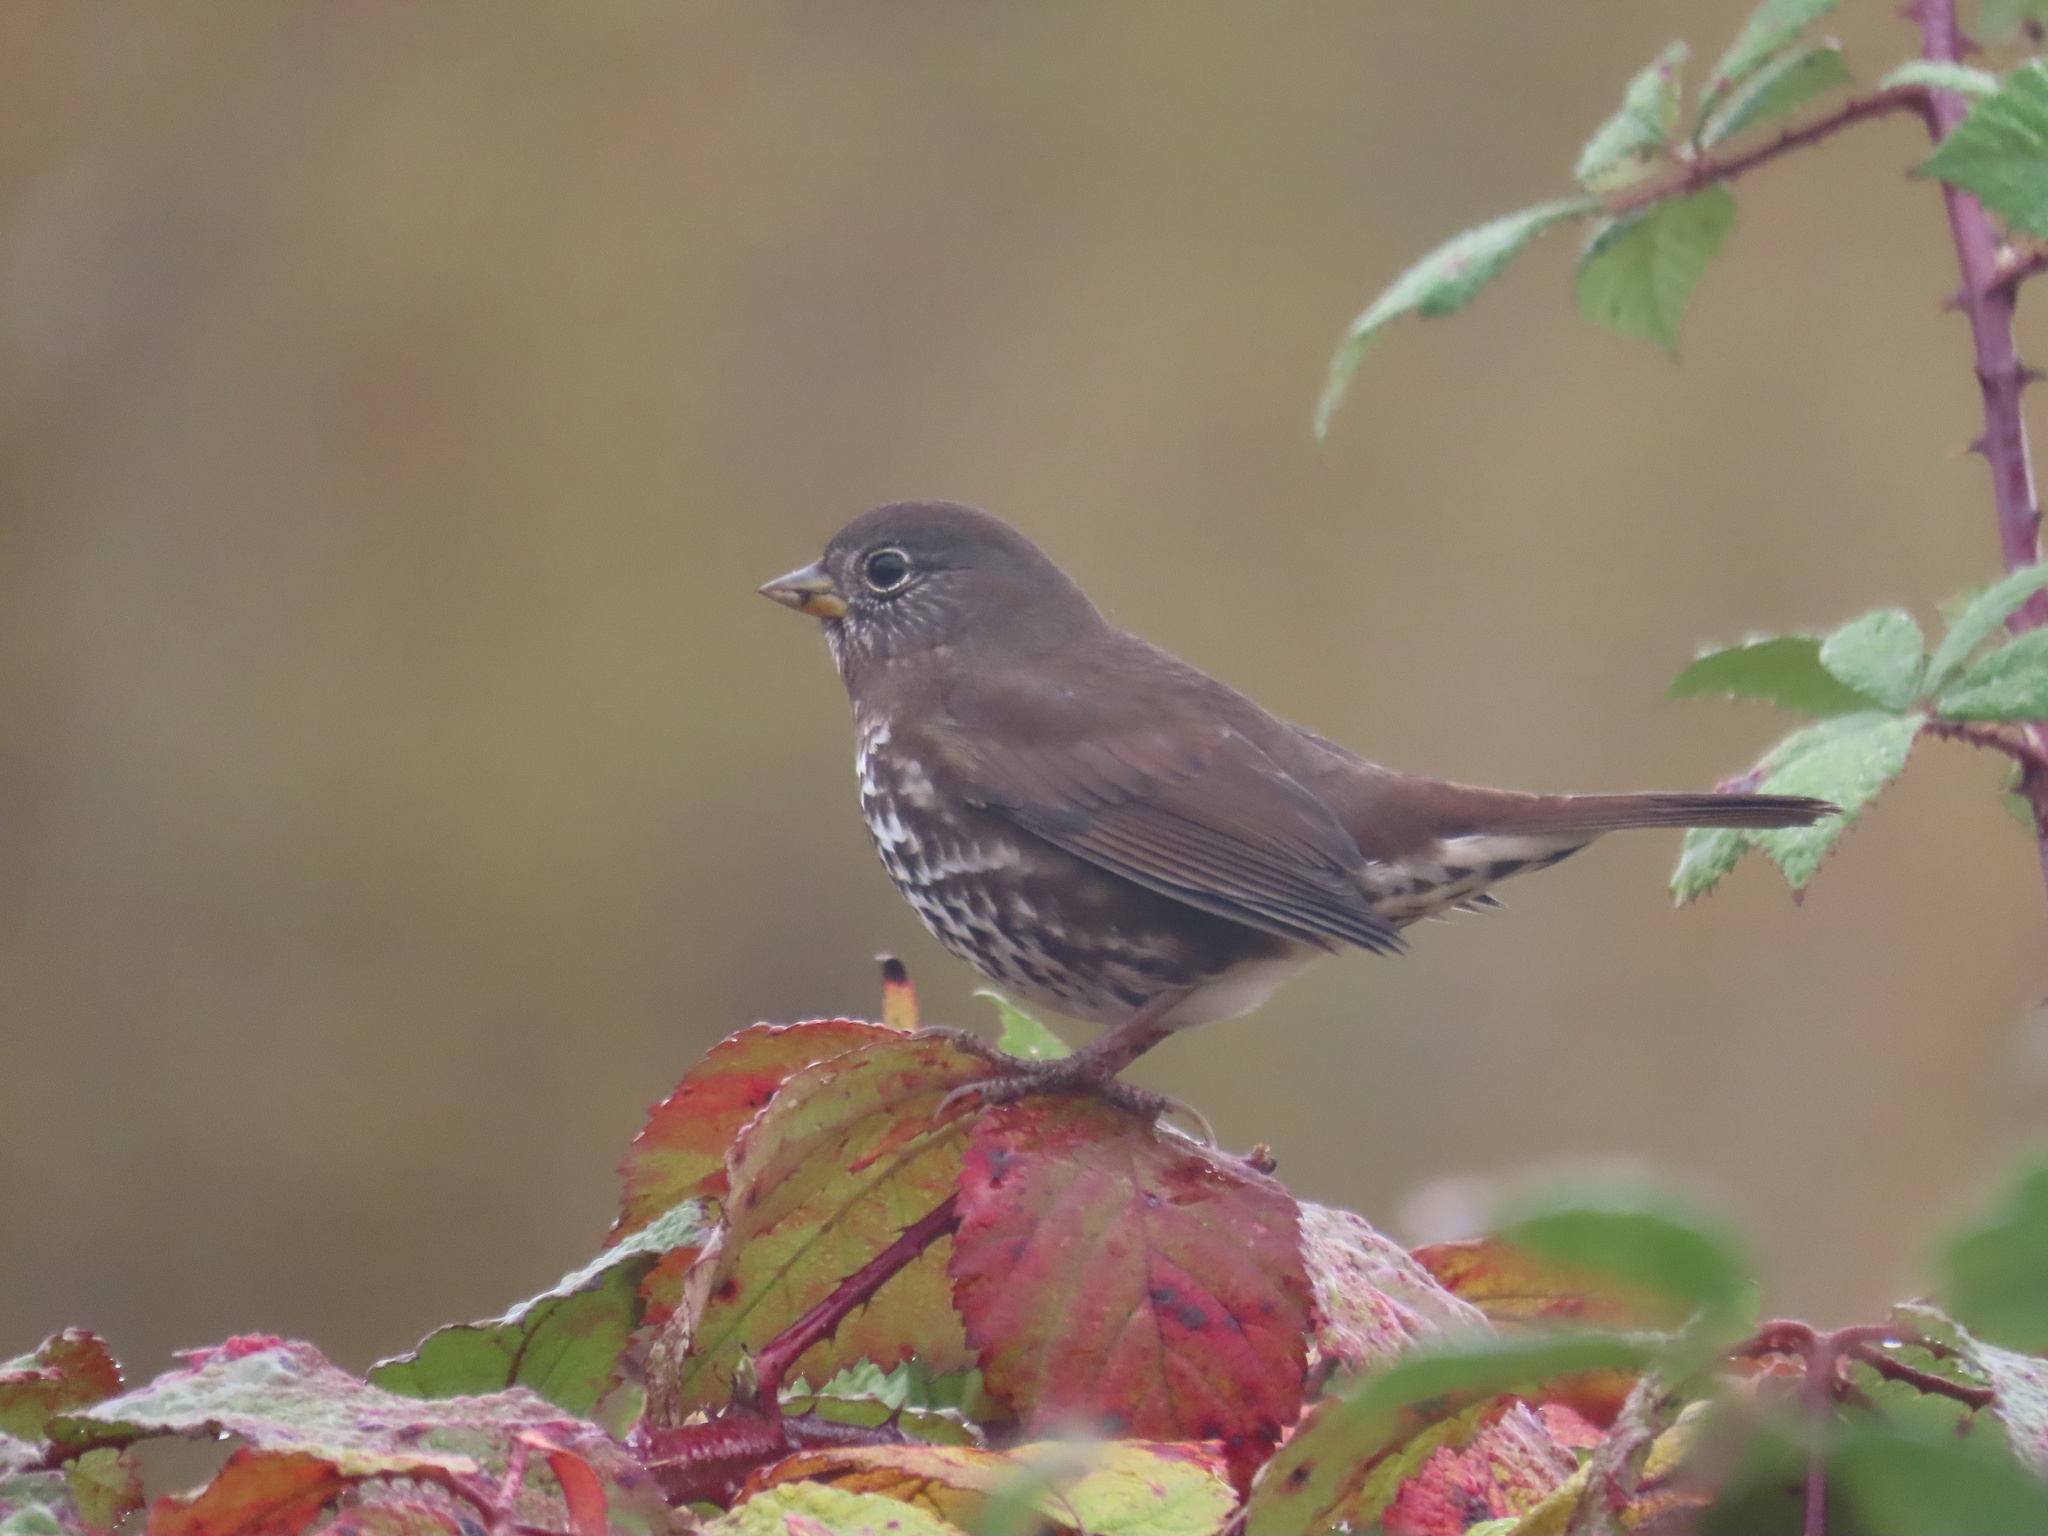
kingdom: Animalia
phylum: Chordata
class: Aves
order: Passeriformes
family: Passerellidae
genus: Passerella
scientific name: Passerella iliaca
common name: Fox sparrow
